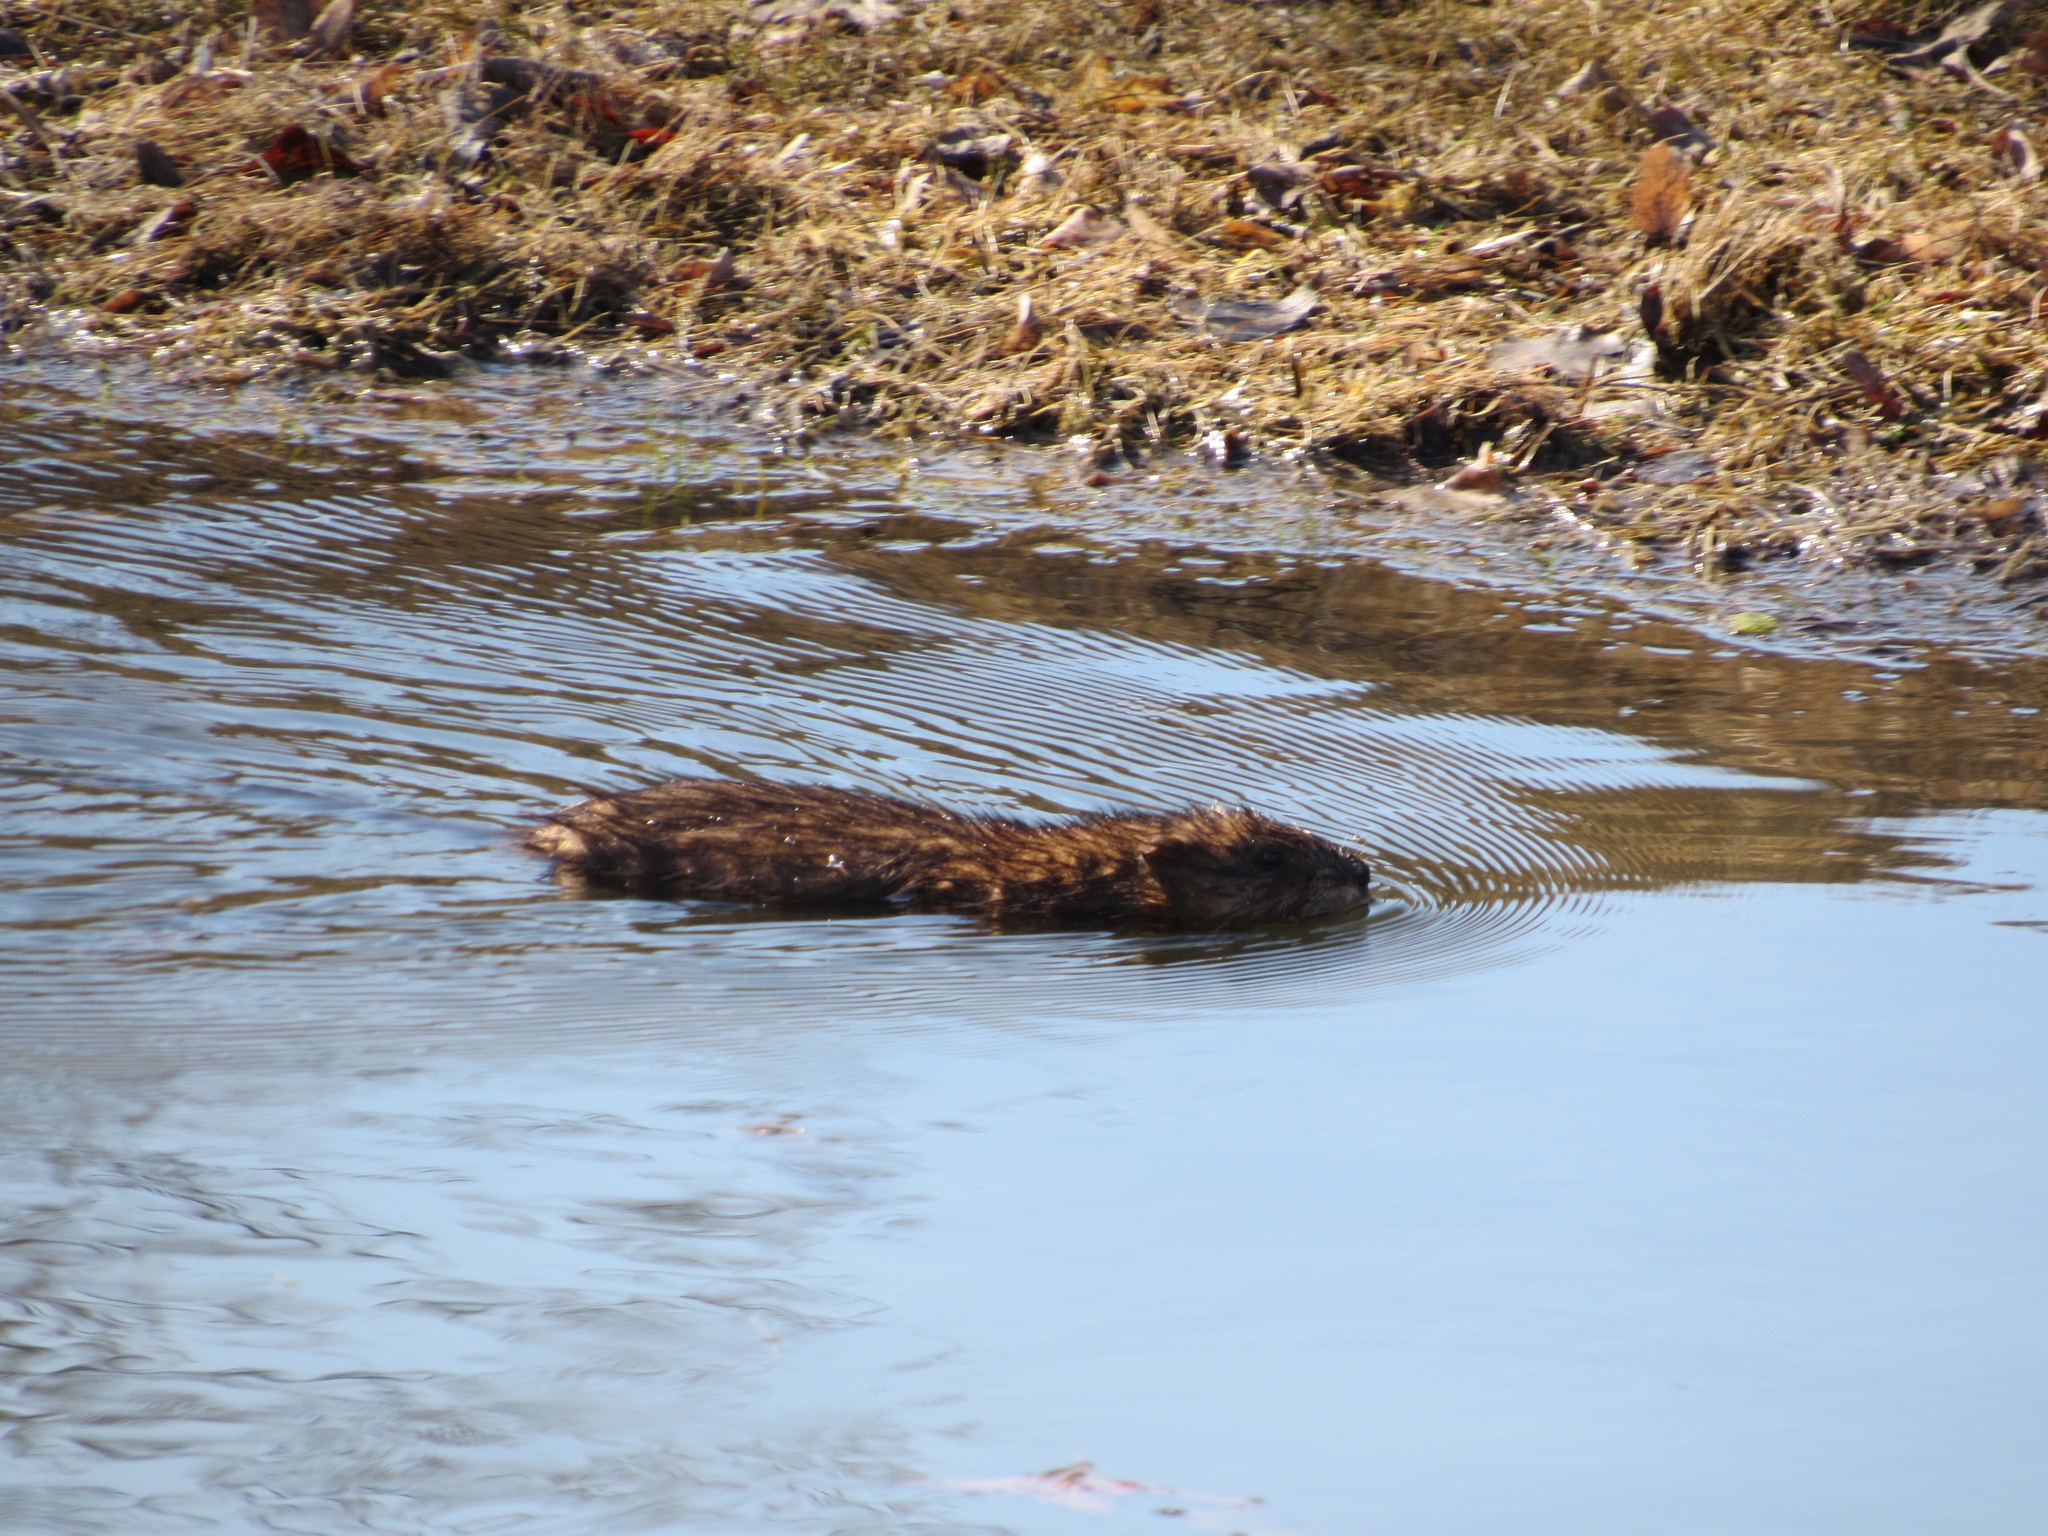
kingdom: Animalia
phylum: Chordata
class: Mammalia
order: Rodentia
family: Cricetidae
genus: Ondatra
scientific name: Ondatra zibethicus
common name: Muskrat
